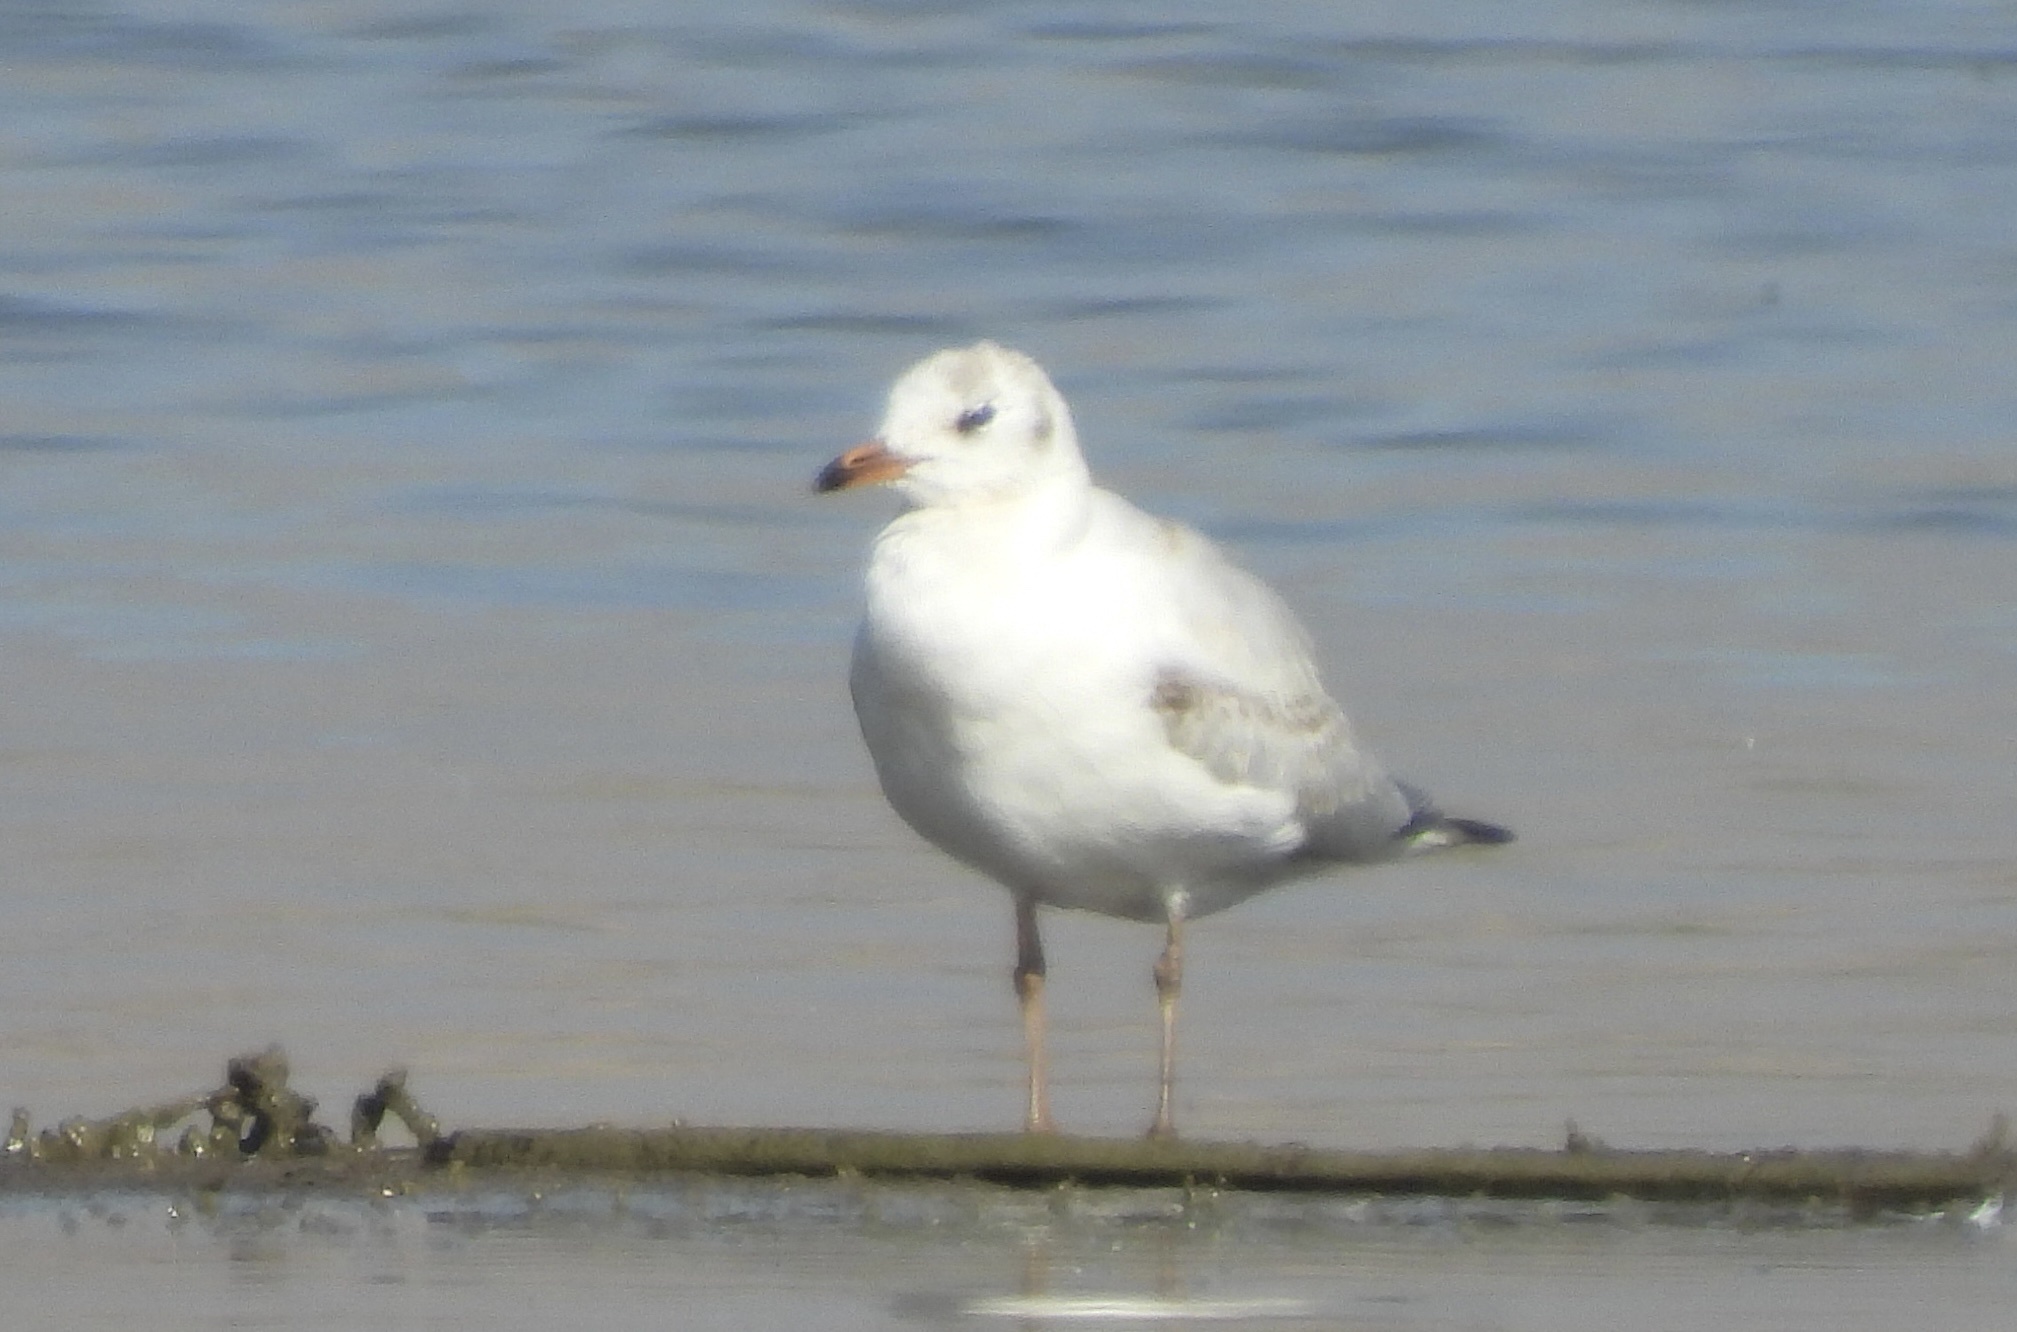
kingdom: Animalia
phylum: Chordata
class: Aves
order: Charadriiformes
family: Laridae
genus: Chroicocephalus
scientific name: Chroicocephalus serranus
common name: Andean gull
